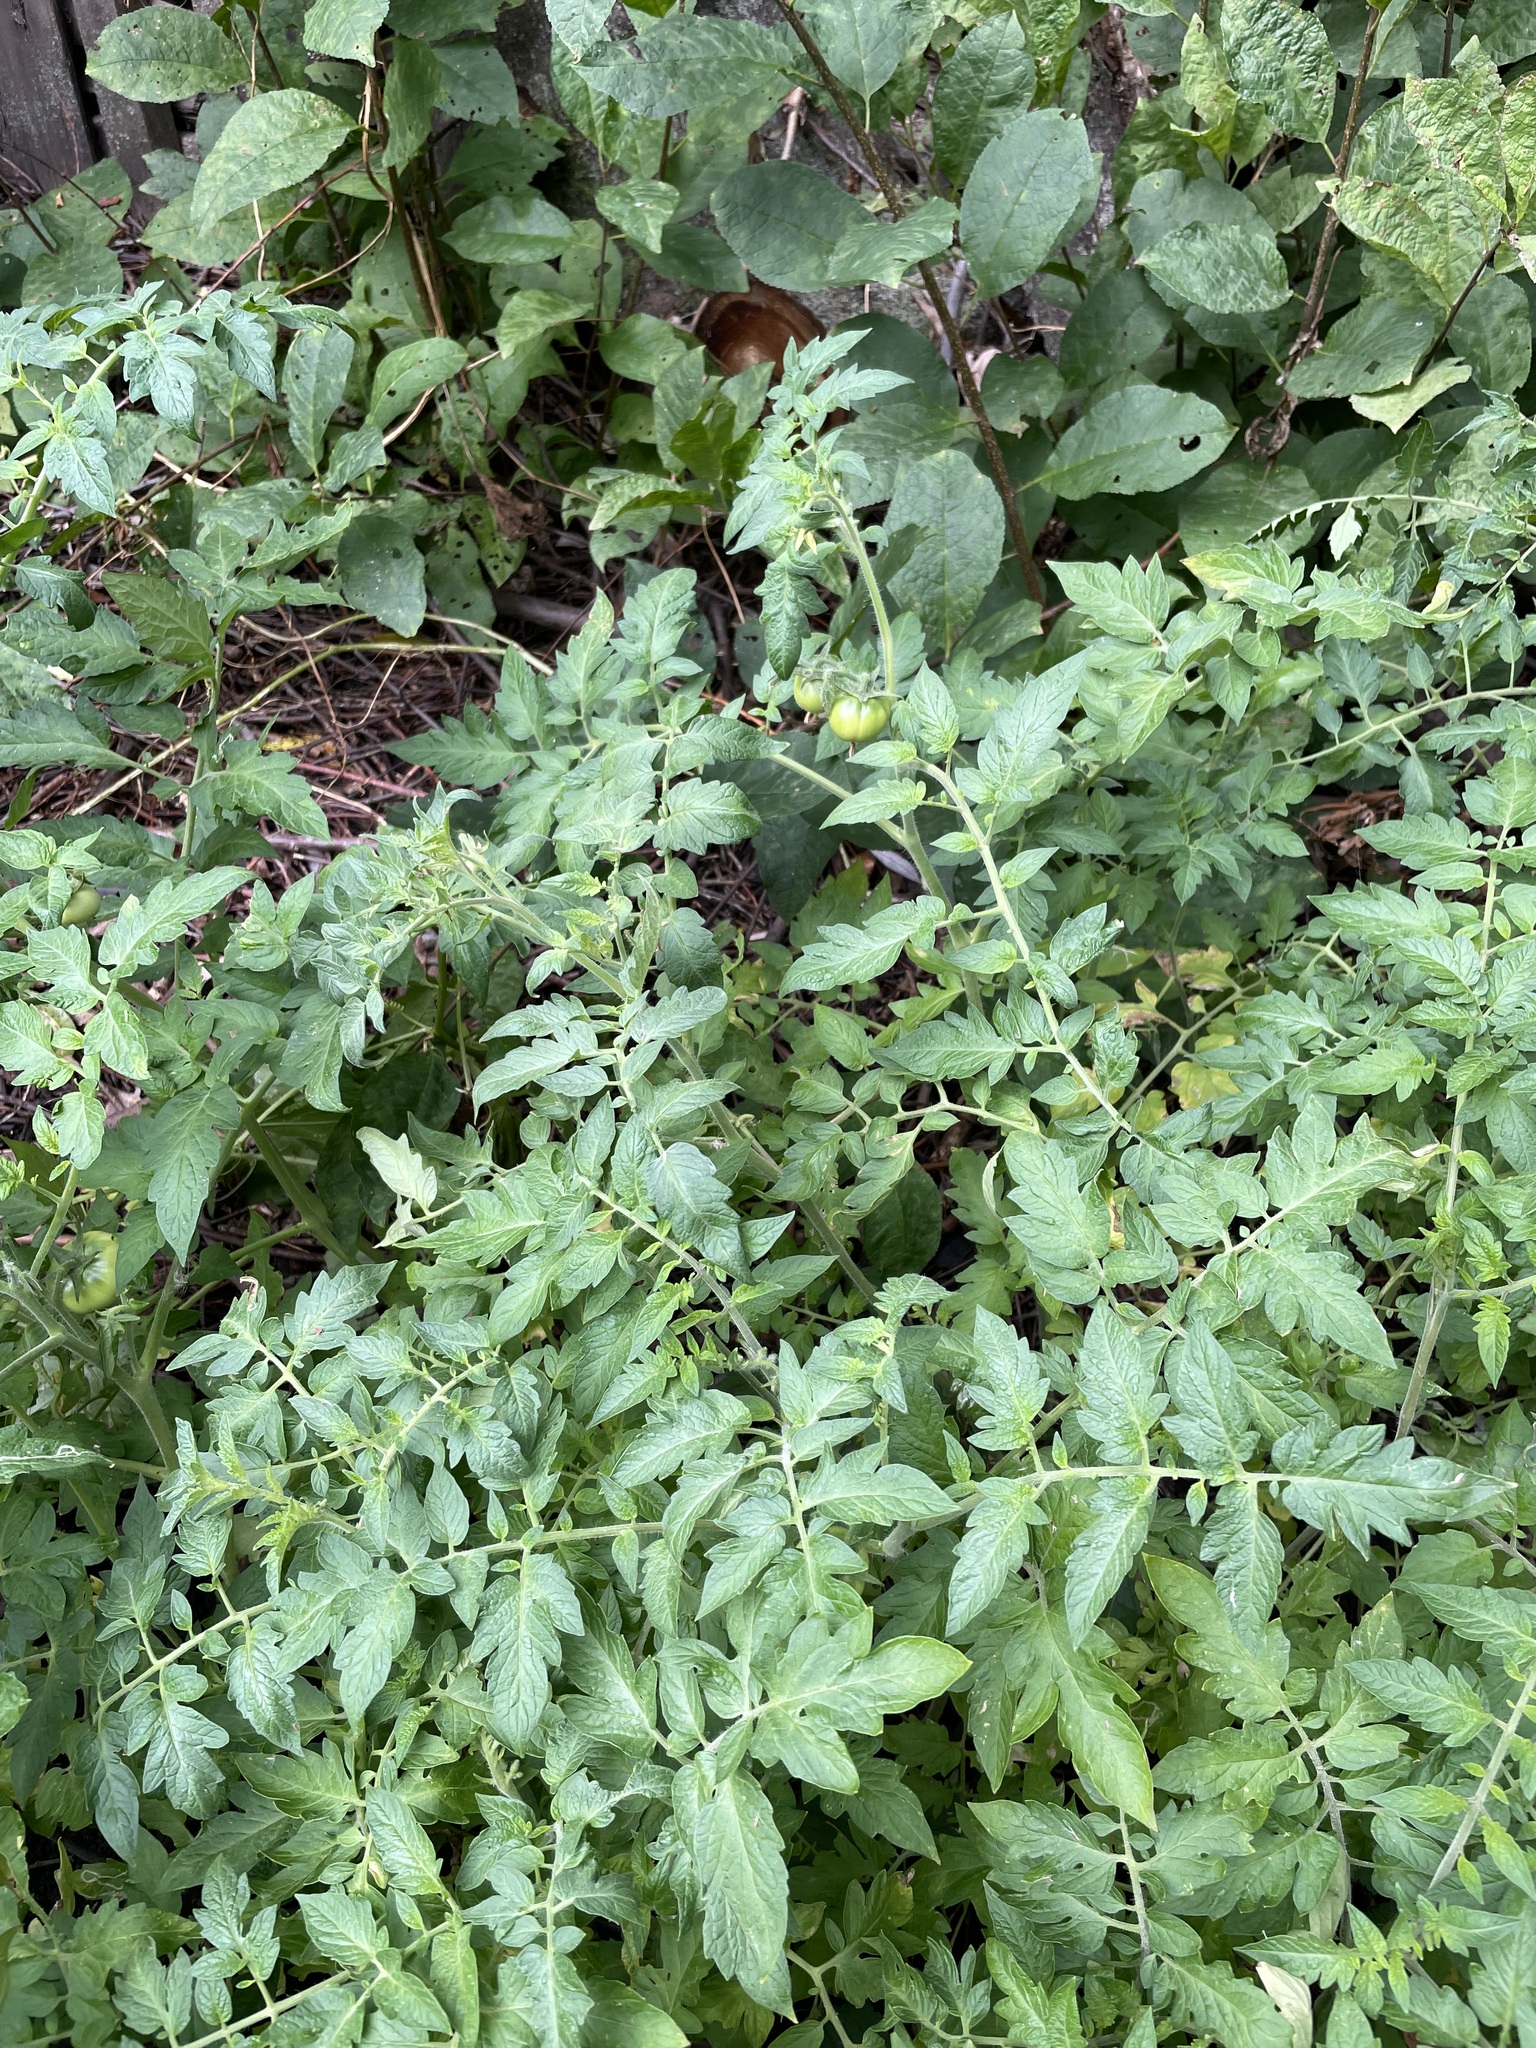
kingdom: Plantae
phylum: Tracheophyta
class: Magnoliopsida
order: Solanales
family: Solanaceae
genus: Solanum
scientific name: Solanum lycopersicum
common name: Garden tomato
